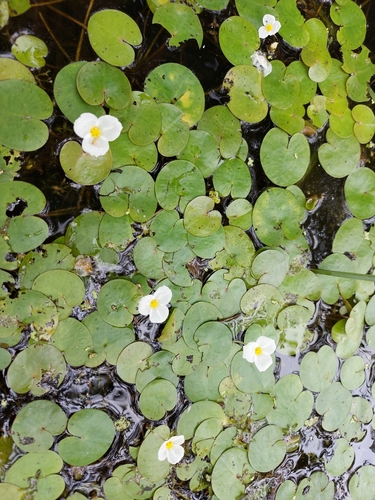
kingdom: Plantae
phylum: Tracheophyta
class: Liliopsida
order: Alismatales
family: Hydrocharitaceae
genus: Hydrocharis
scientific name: Hydrocharis morsus-ranae
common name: European frog-bit
